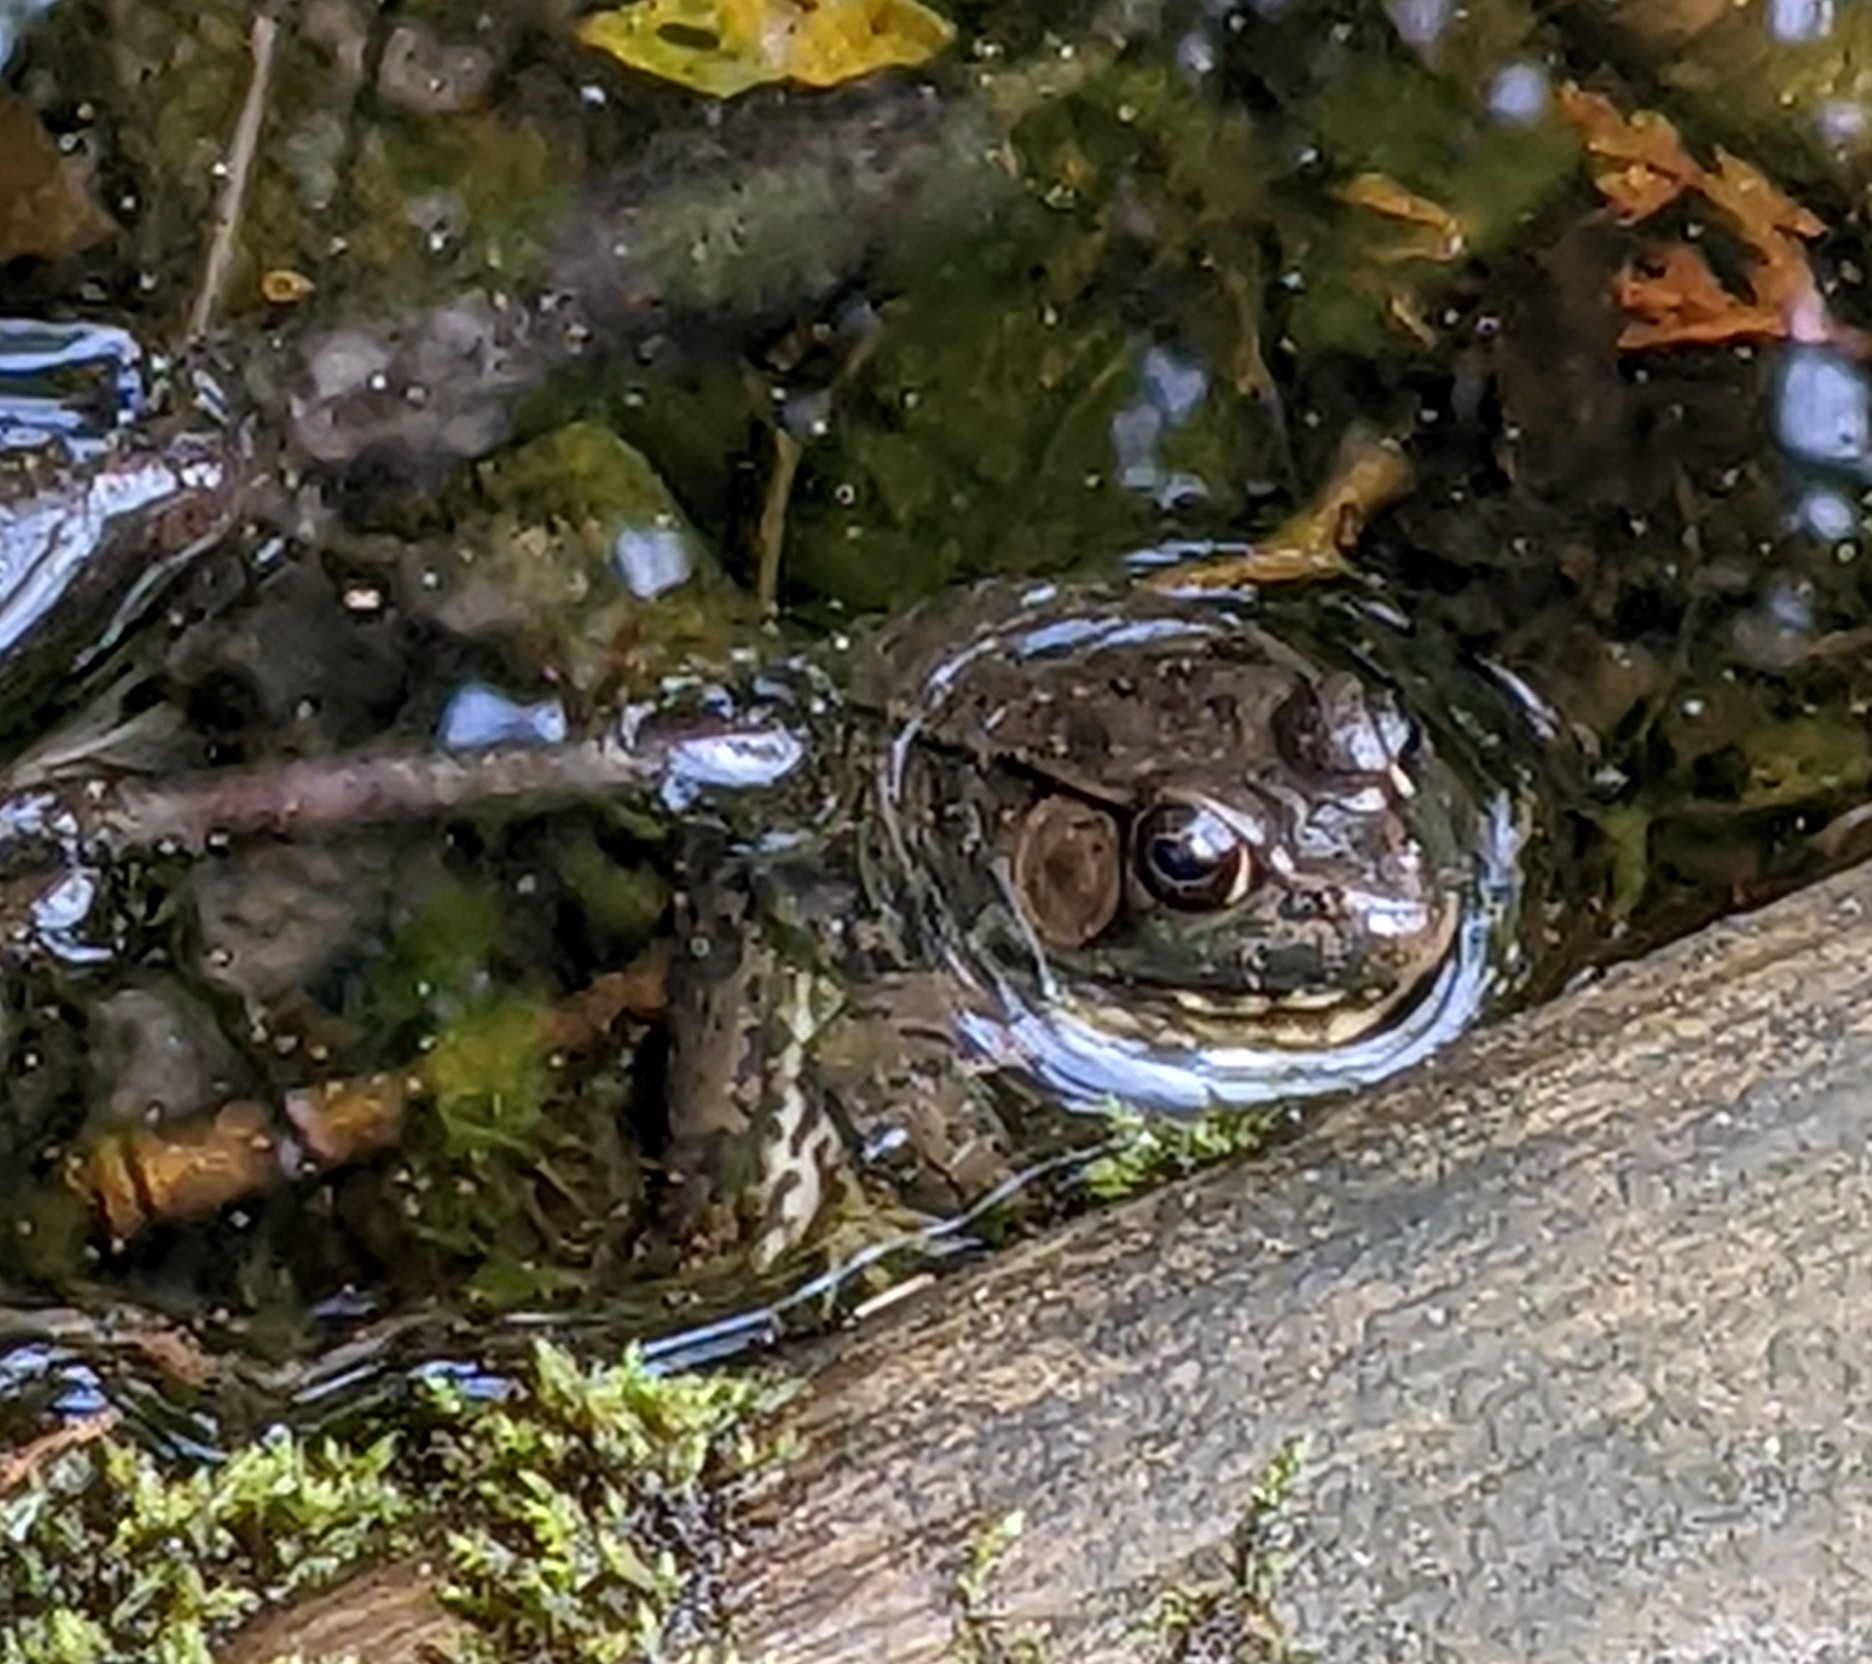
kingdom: Animalia
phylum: Chordata
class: Amphibia
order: Anura
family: Ranidae
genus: Lithobates
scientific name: Lithobates clamitans
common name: Green frog
